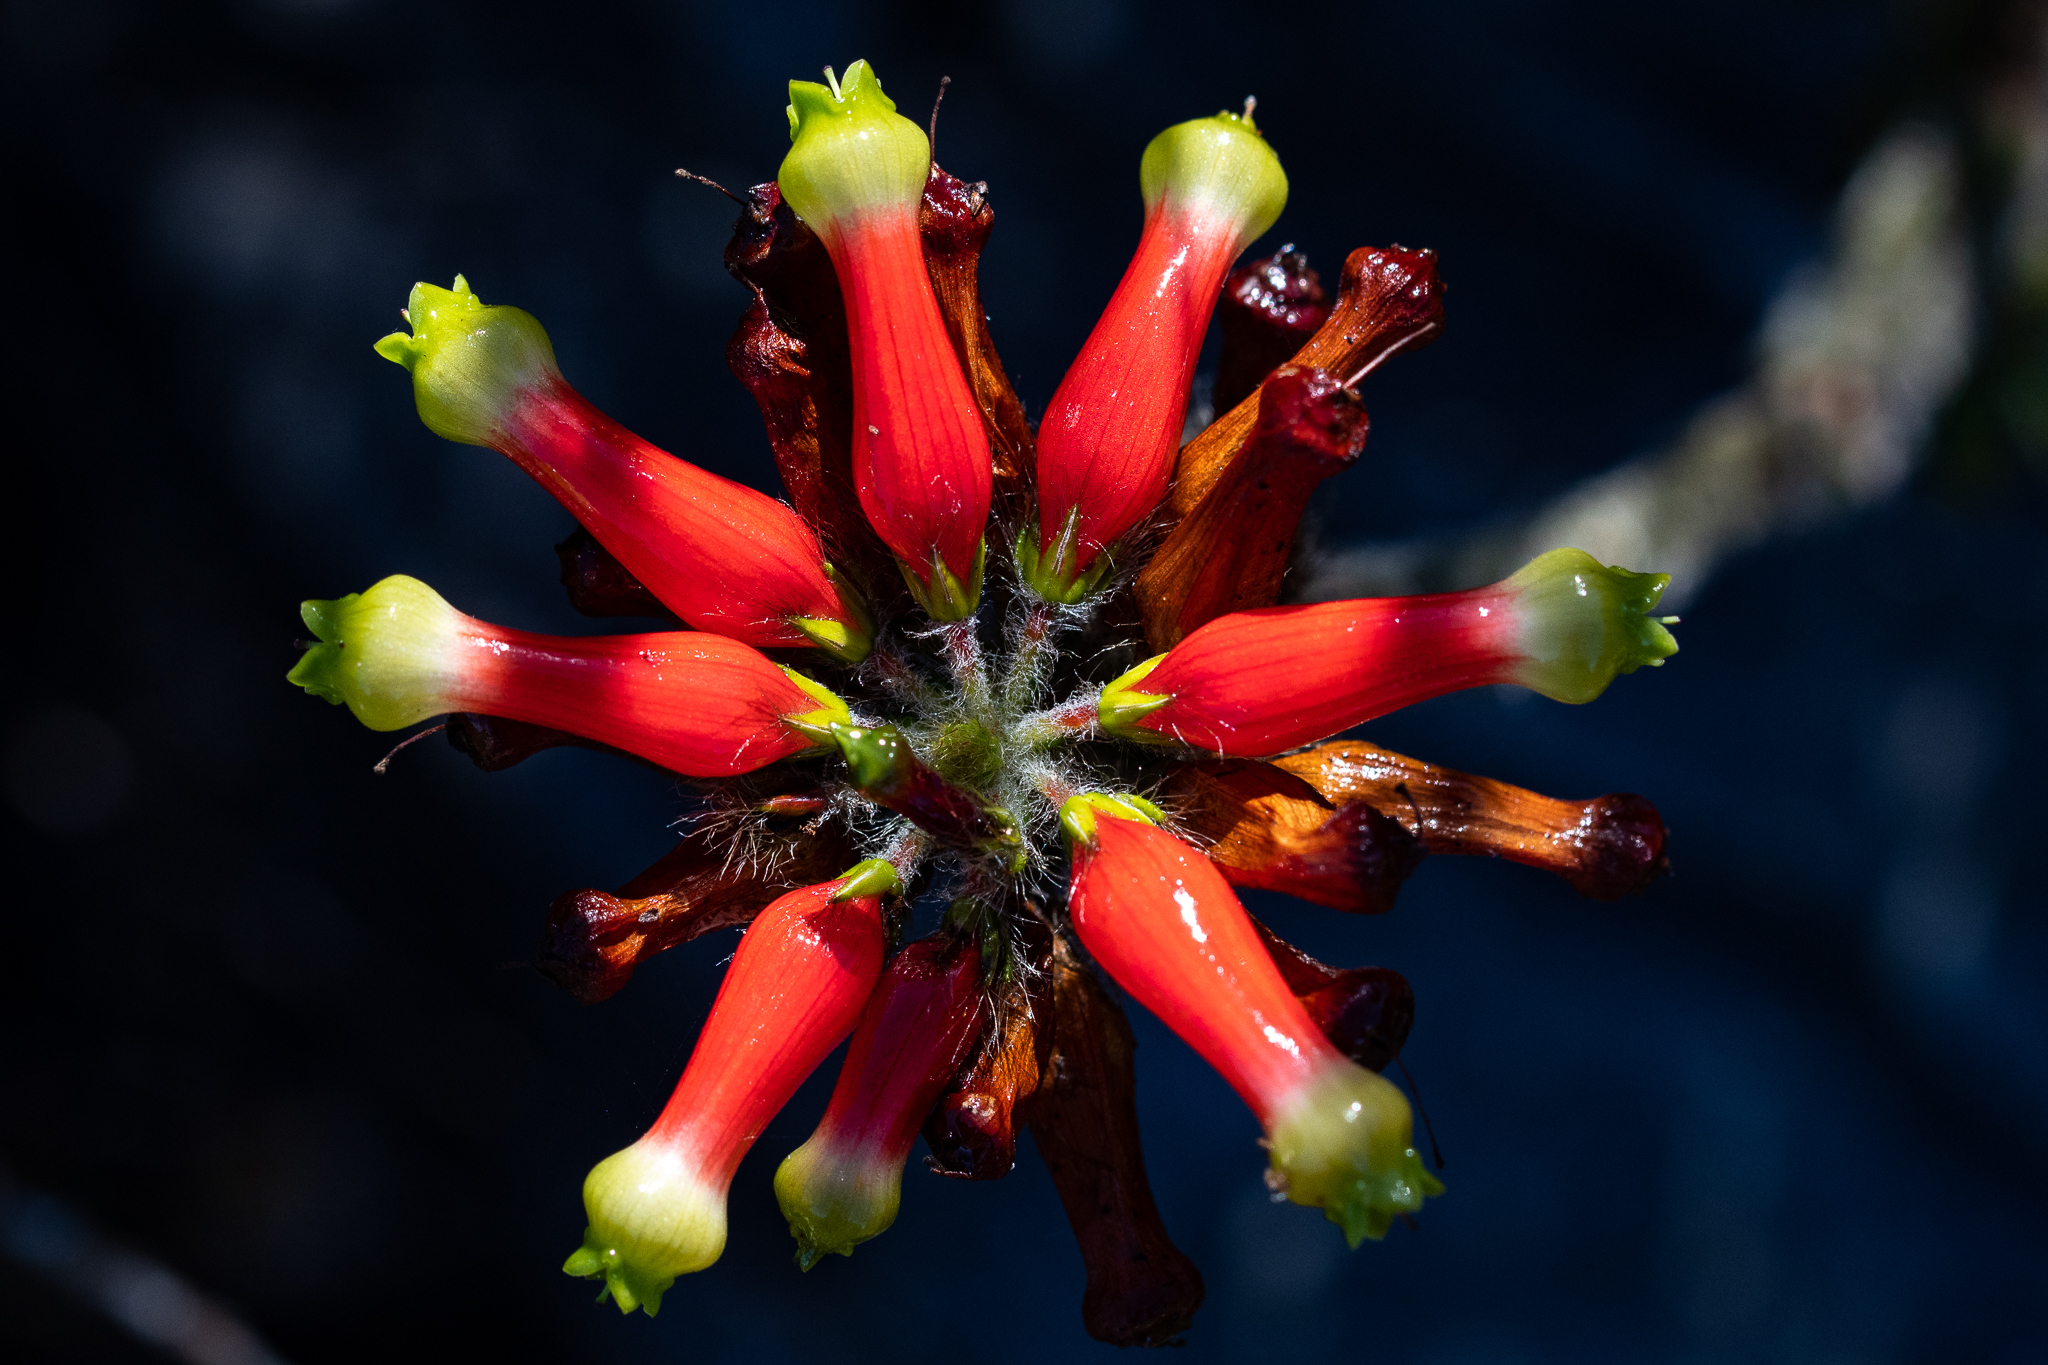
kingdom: Plantae
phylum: Tracheophyta
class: Magnoliopsida
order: Ericales
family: Ericaceae
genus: Erica
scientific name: Erica massonii
